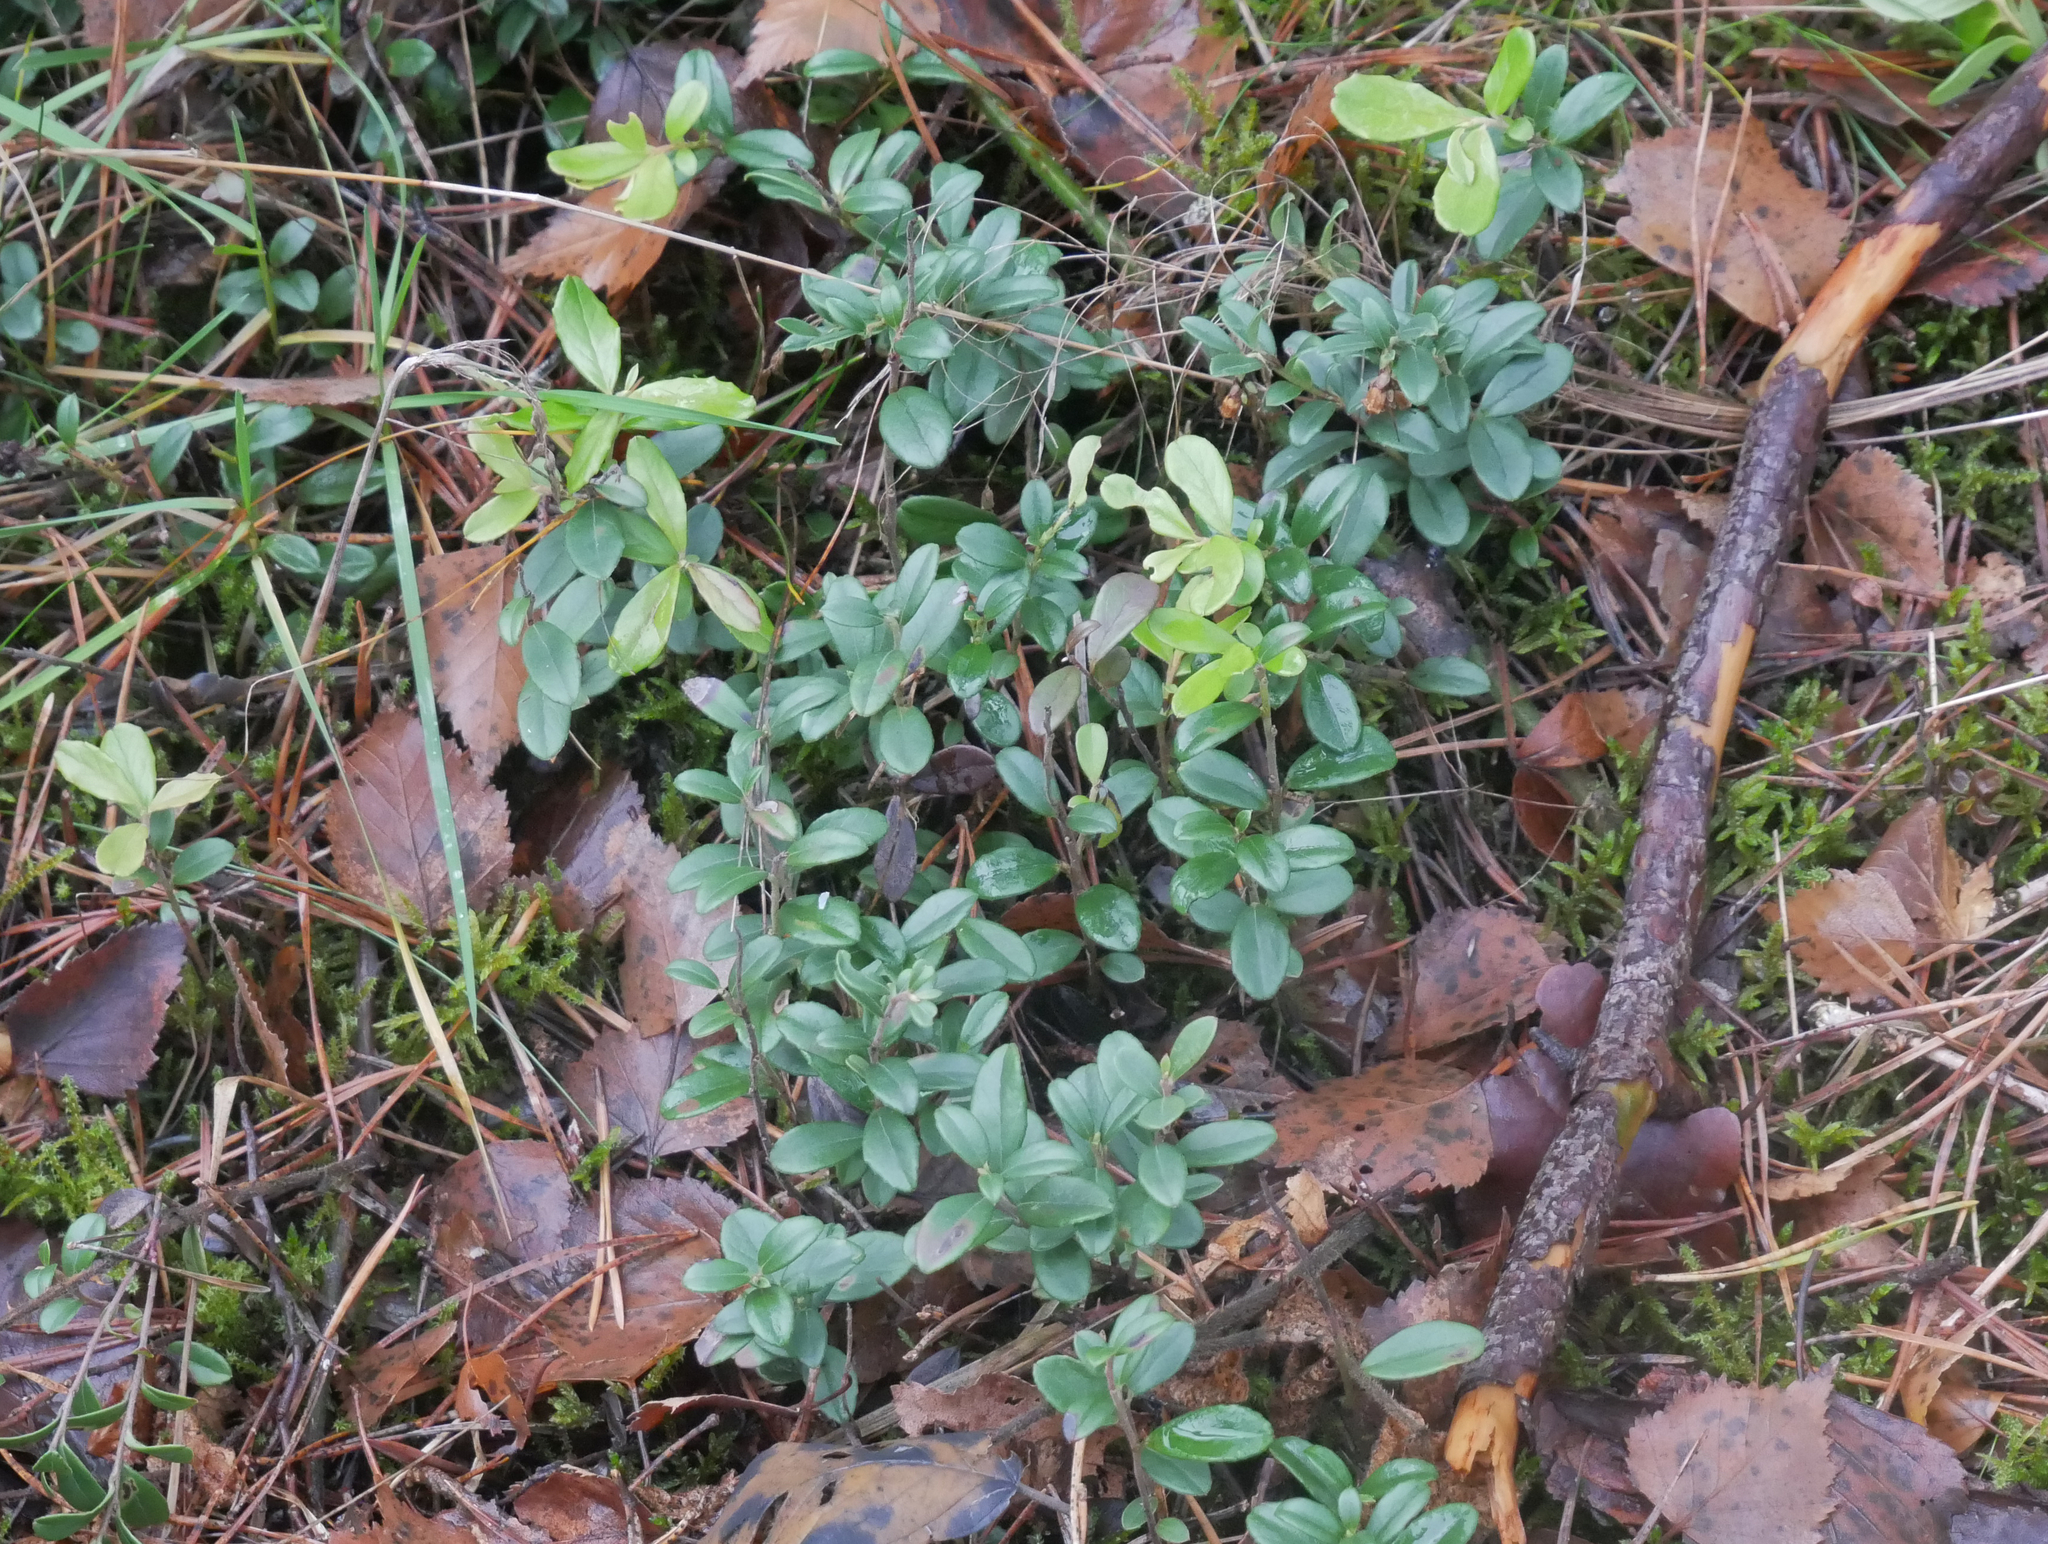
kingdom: Plantae
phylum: Tracheophyta
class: Magnoliopsida
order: Ericales
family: Ericaceae
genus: Vaccinium
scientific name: Vaccinium vitis-idaea
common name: Cowberry
